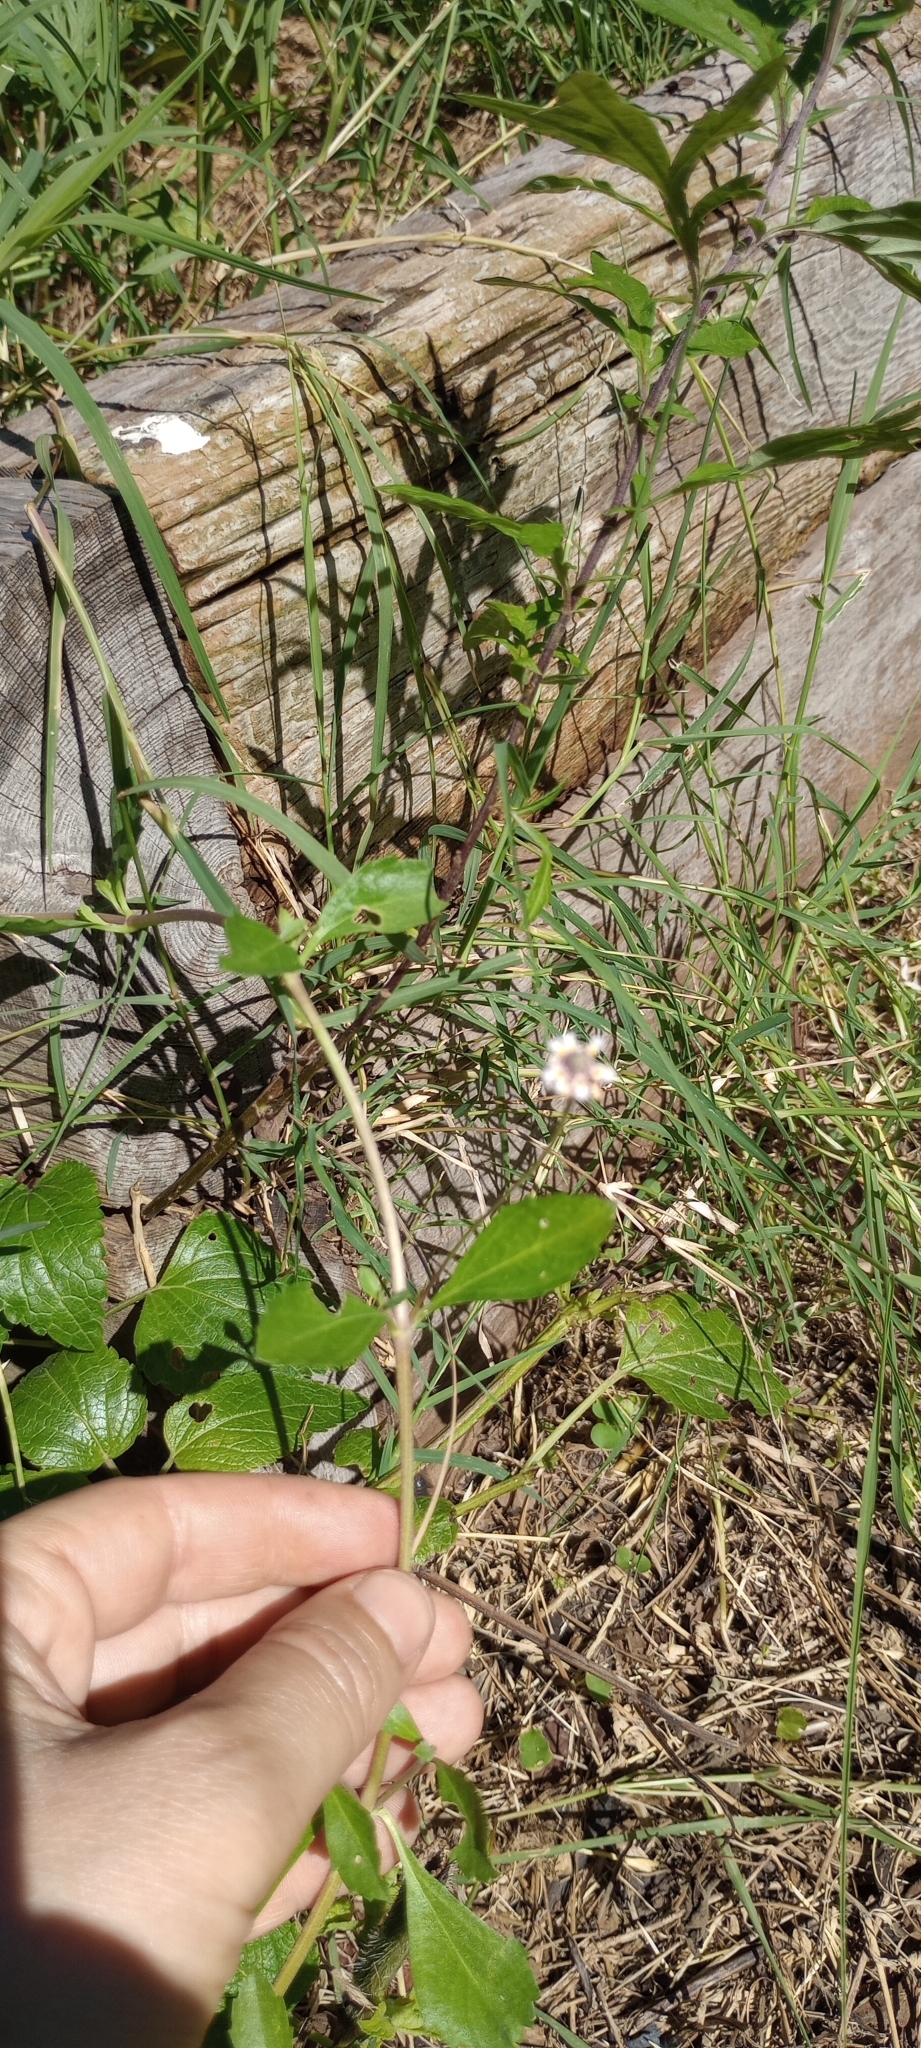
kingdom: Plantae
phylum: Tracheophyta
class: Magnoliopsida
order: Lamiales
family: Verbenaceae
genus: Phyla
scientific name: Phyla nodiflora
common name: Frogfruit
